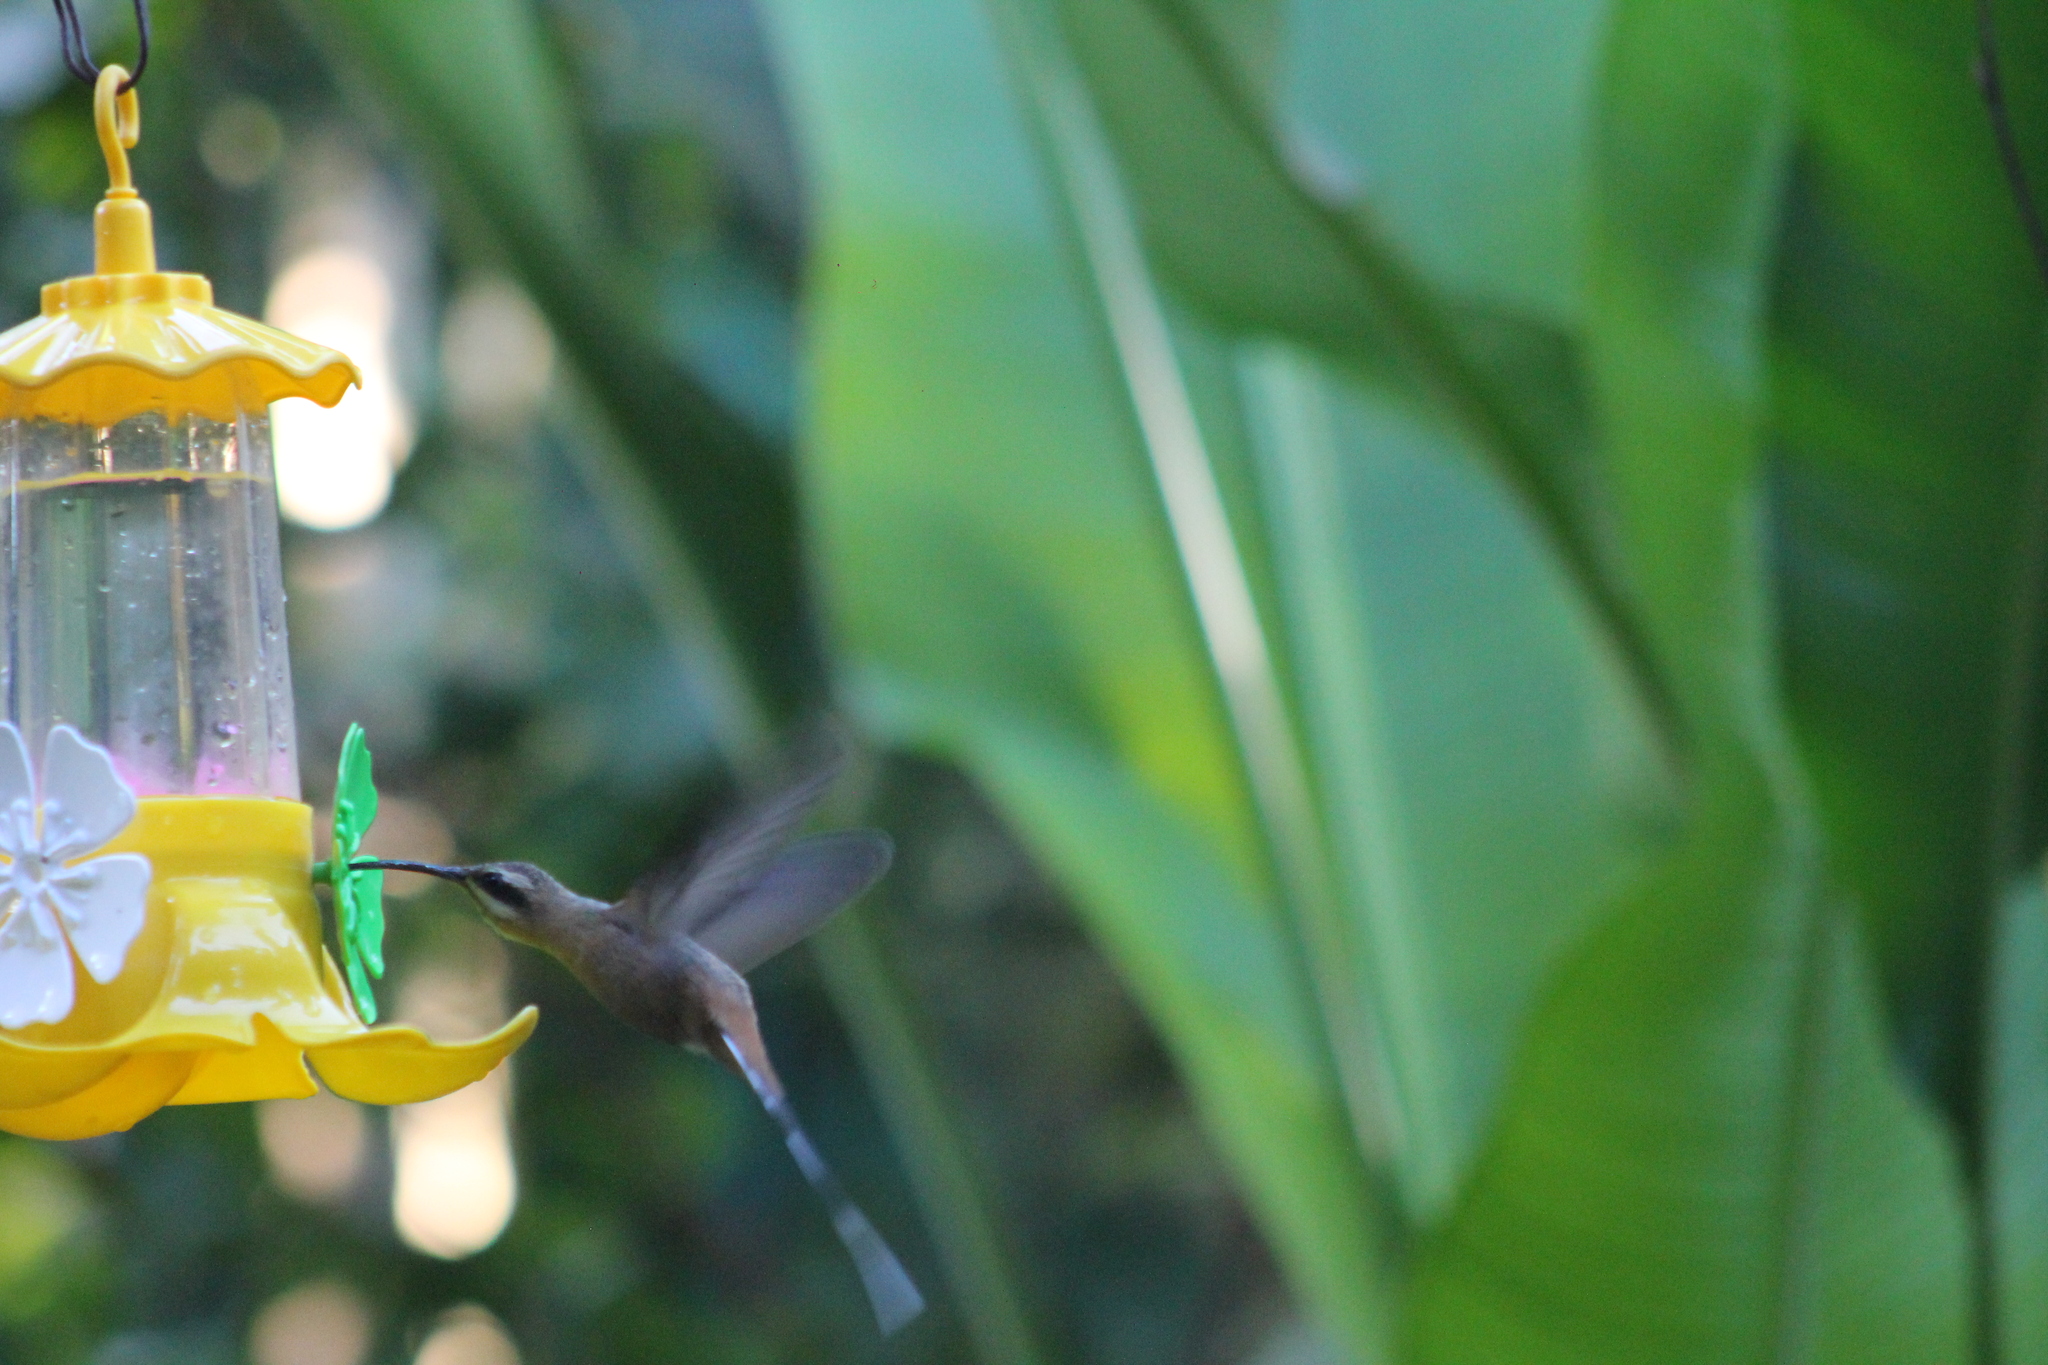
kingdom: Animalia
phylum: Chordata
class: Aves
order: Apodiformes
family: Trochilidae
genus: Phaethornis
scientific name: Phaethornis pretrei
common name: Planalto hermit
